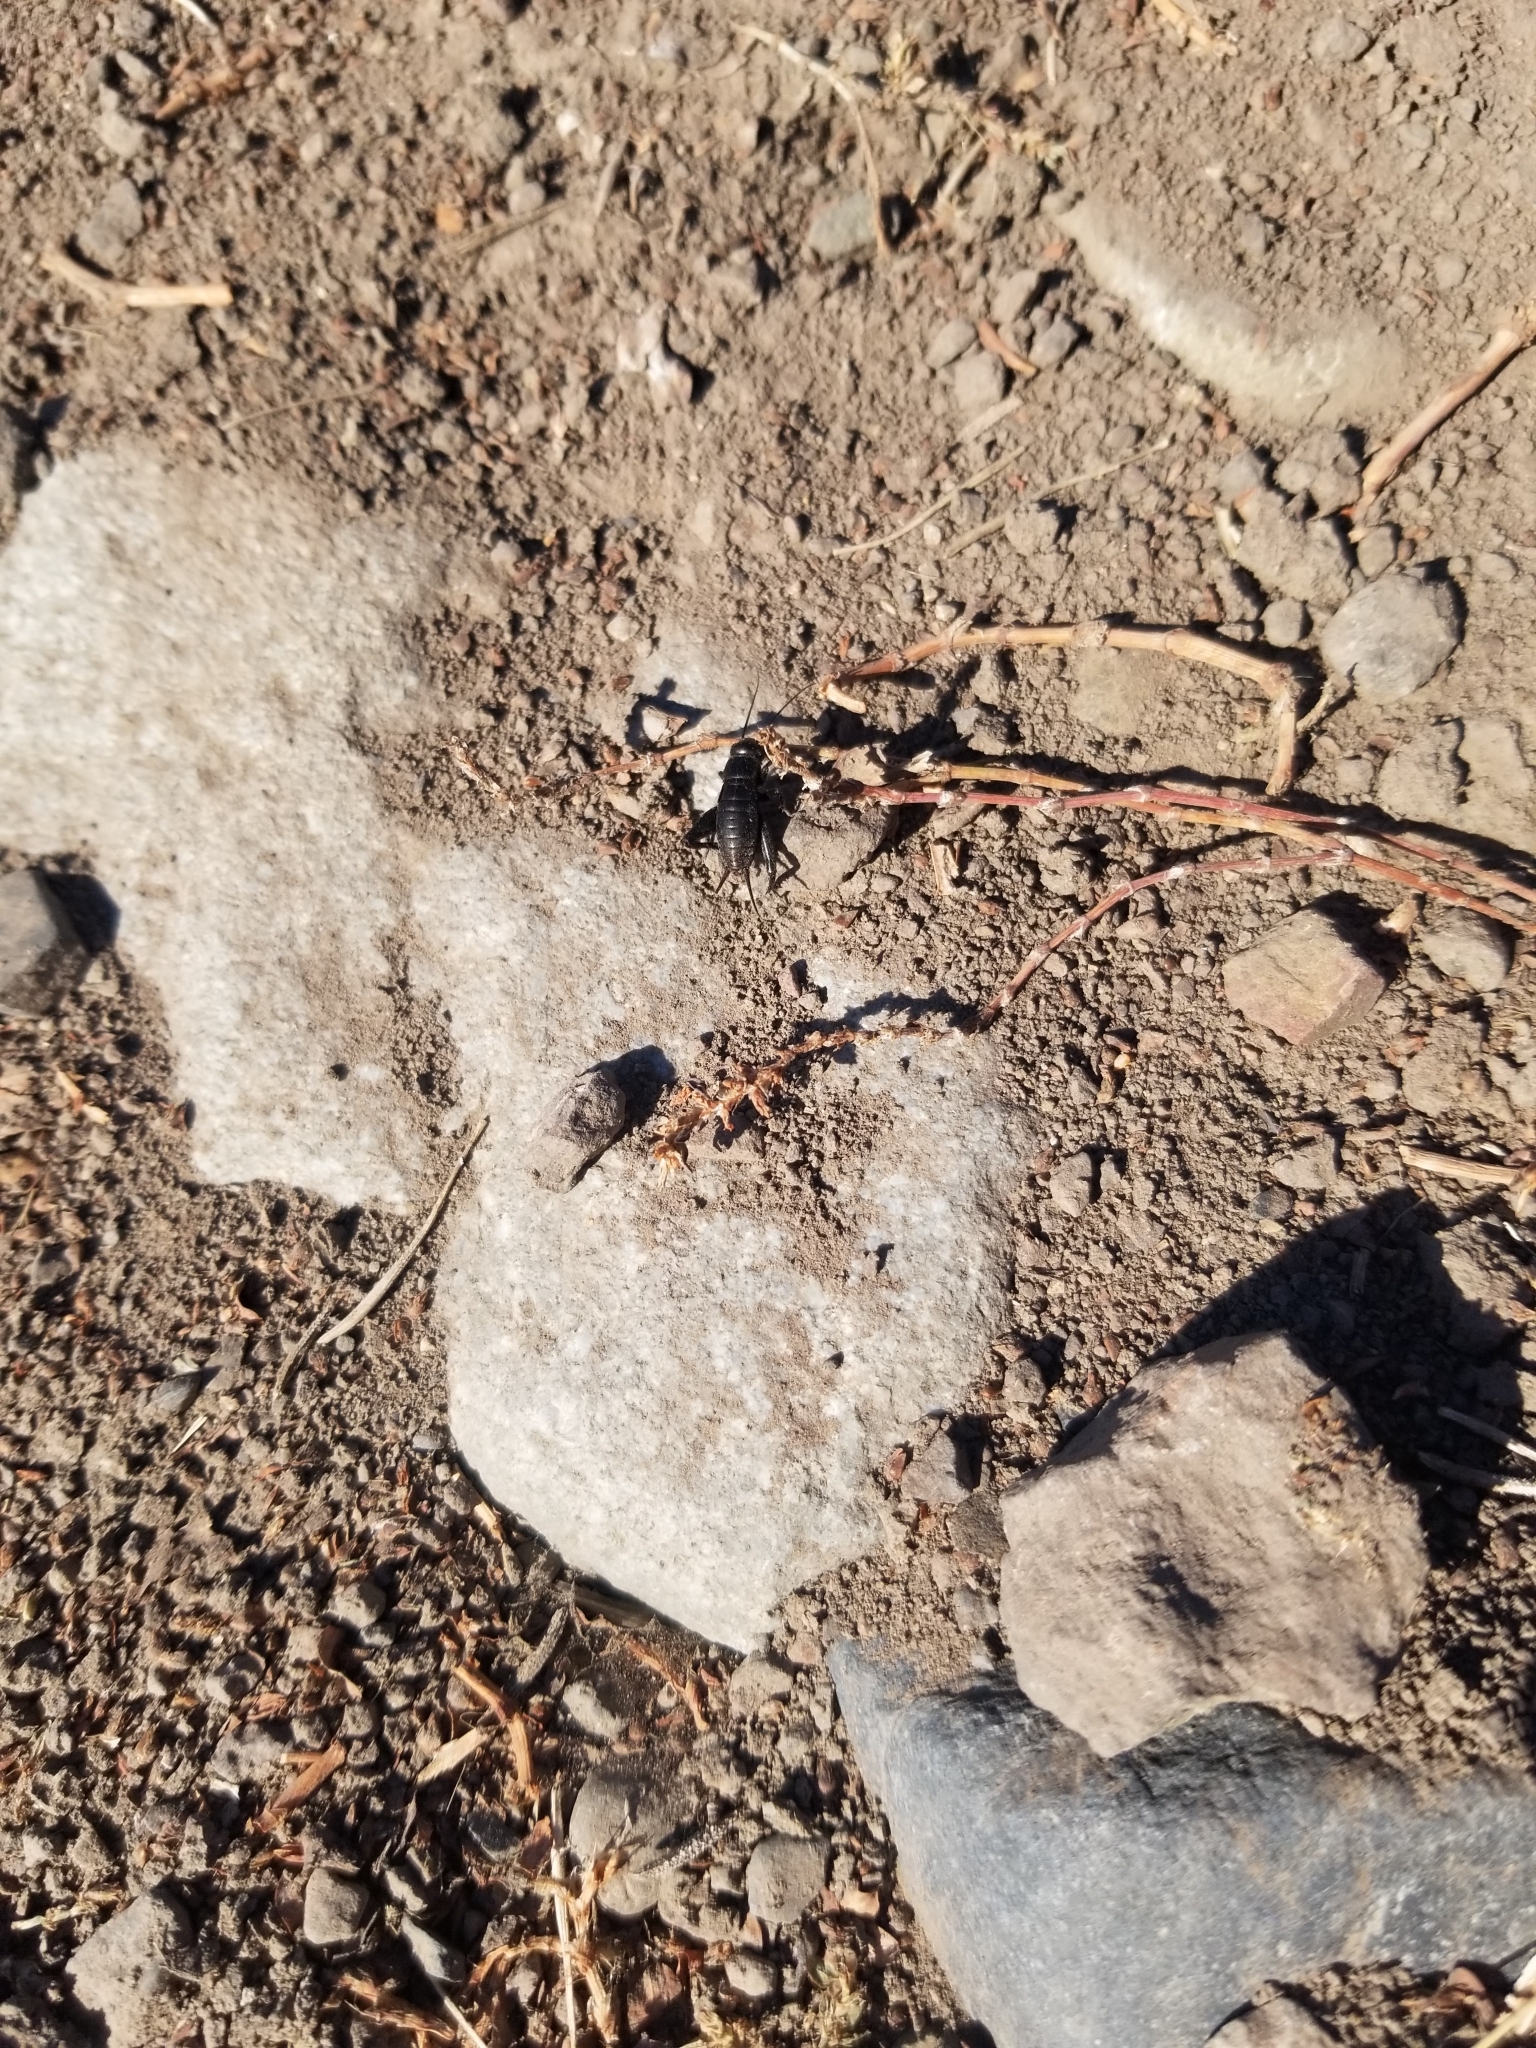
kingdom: Animalia
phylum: Arthropoda
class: Insecta
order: Orthoptera
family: Gryllidae
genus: Gryllus
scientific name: Gryllus veletis
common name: Spring field cricket
